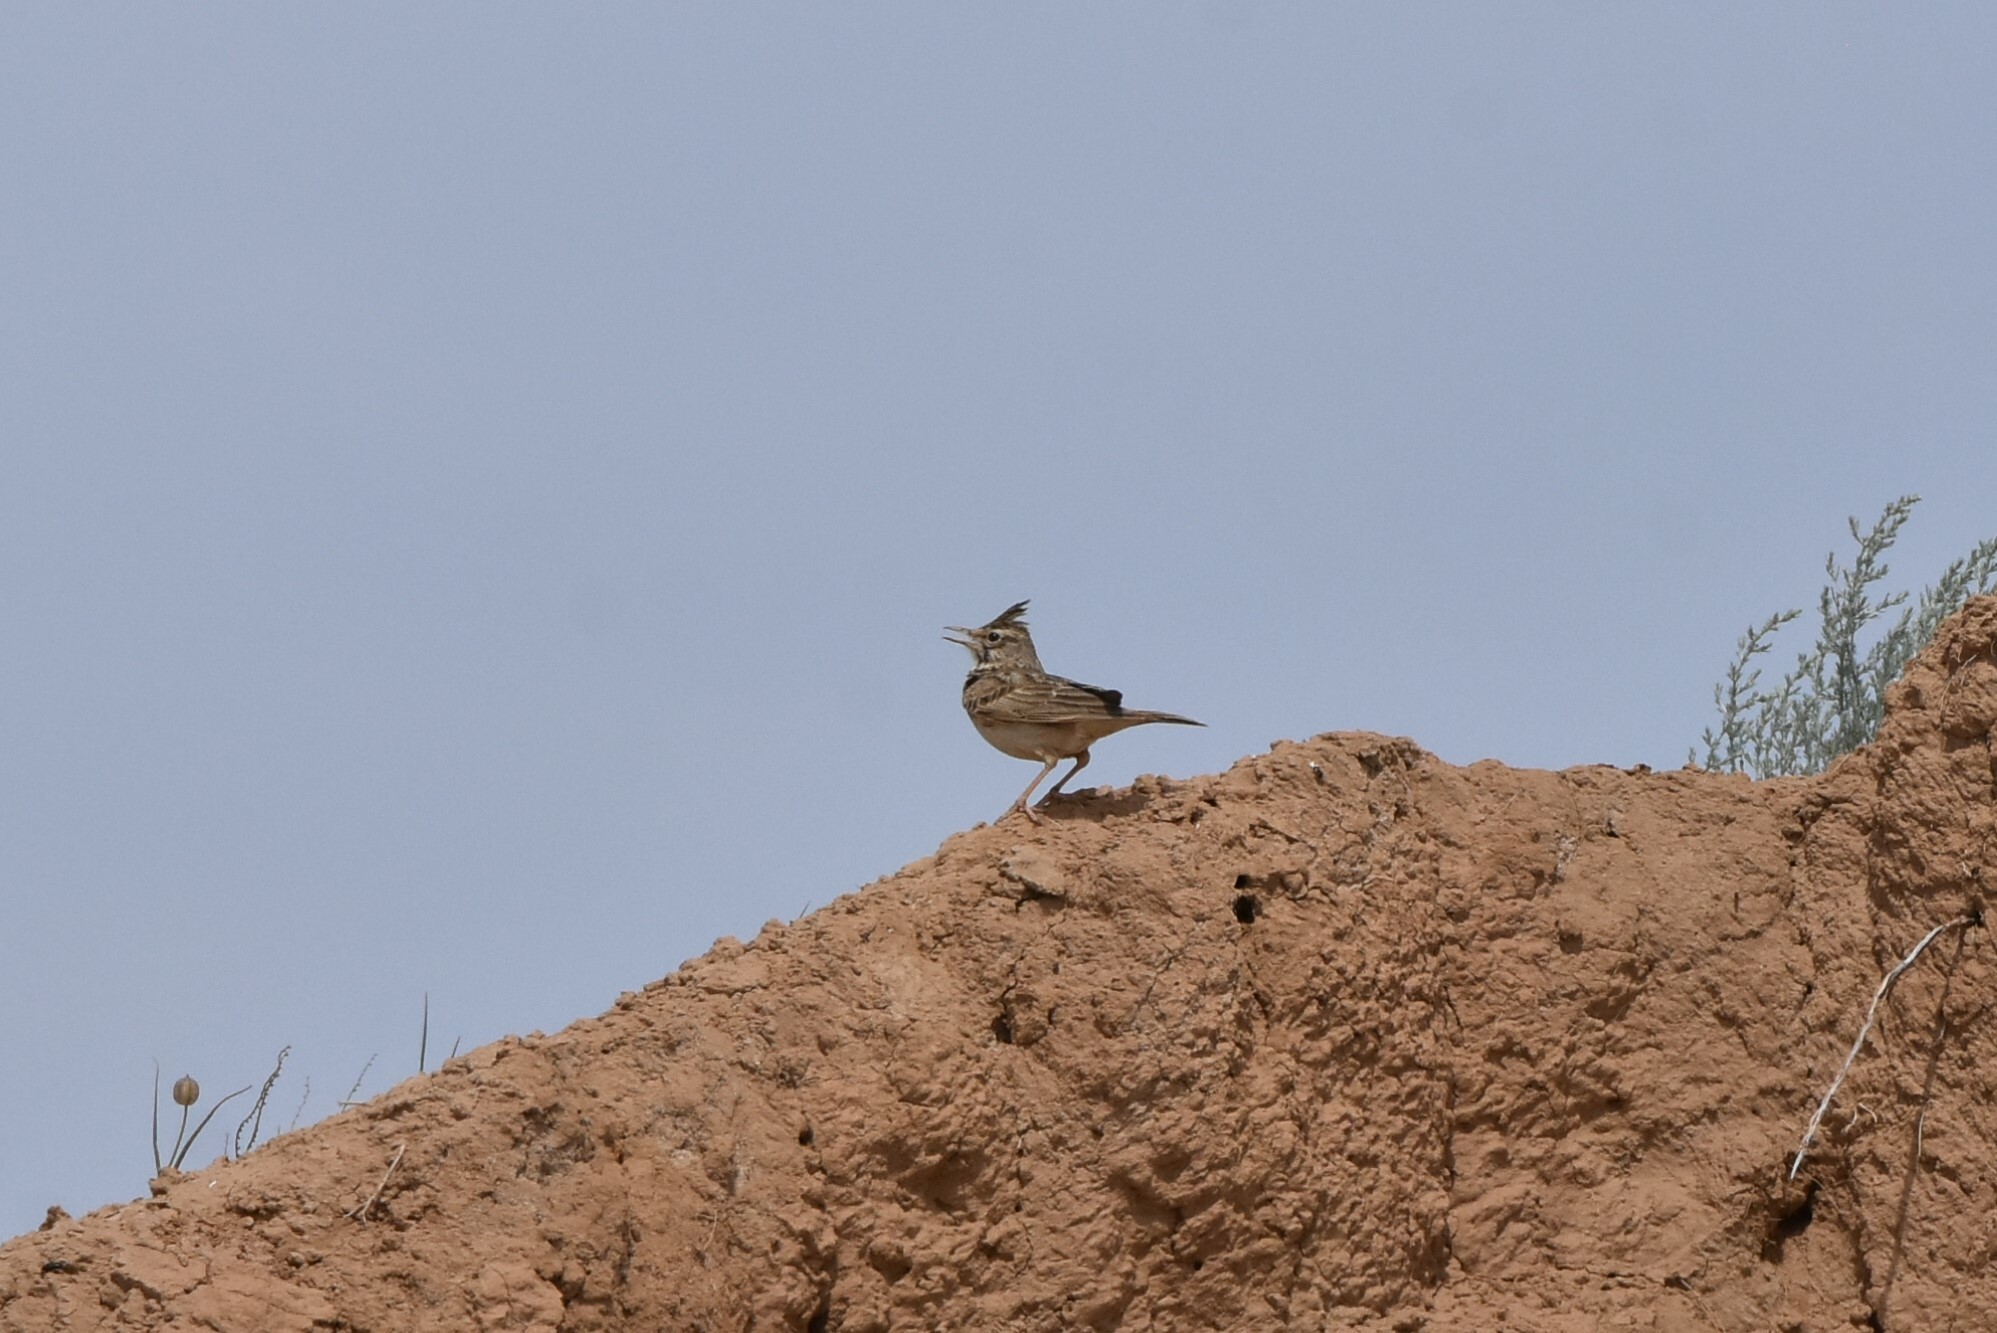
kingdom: Animalia
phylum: Chordata
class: Aves
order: Passeriformes
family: Alaudidae
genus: Galerida
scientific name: Galerida cristata
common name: Crested lark
